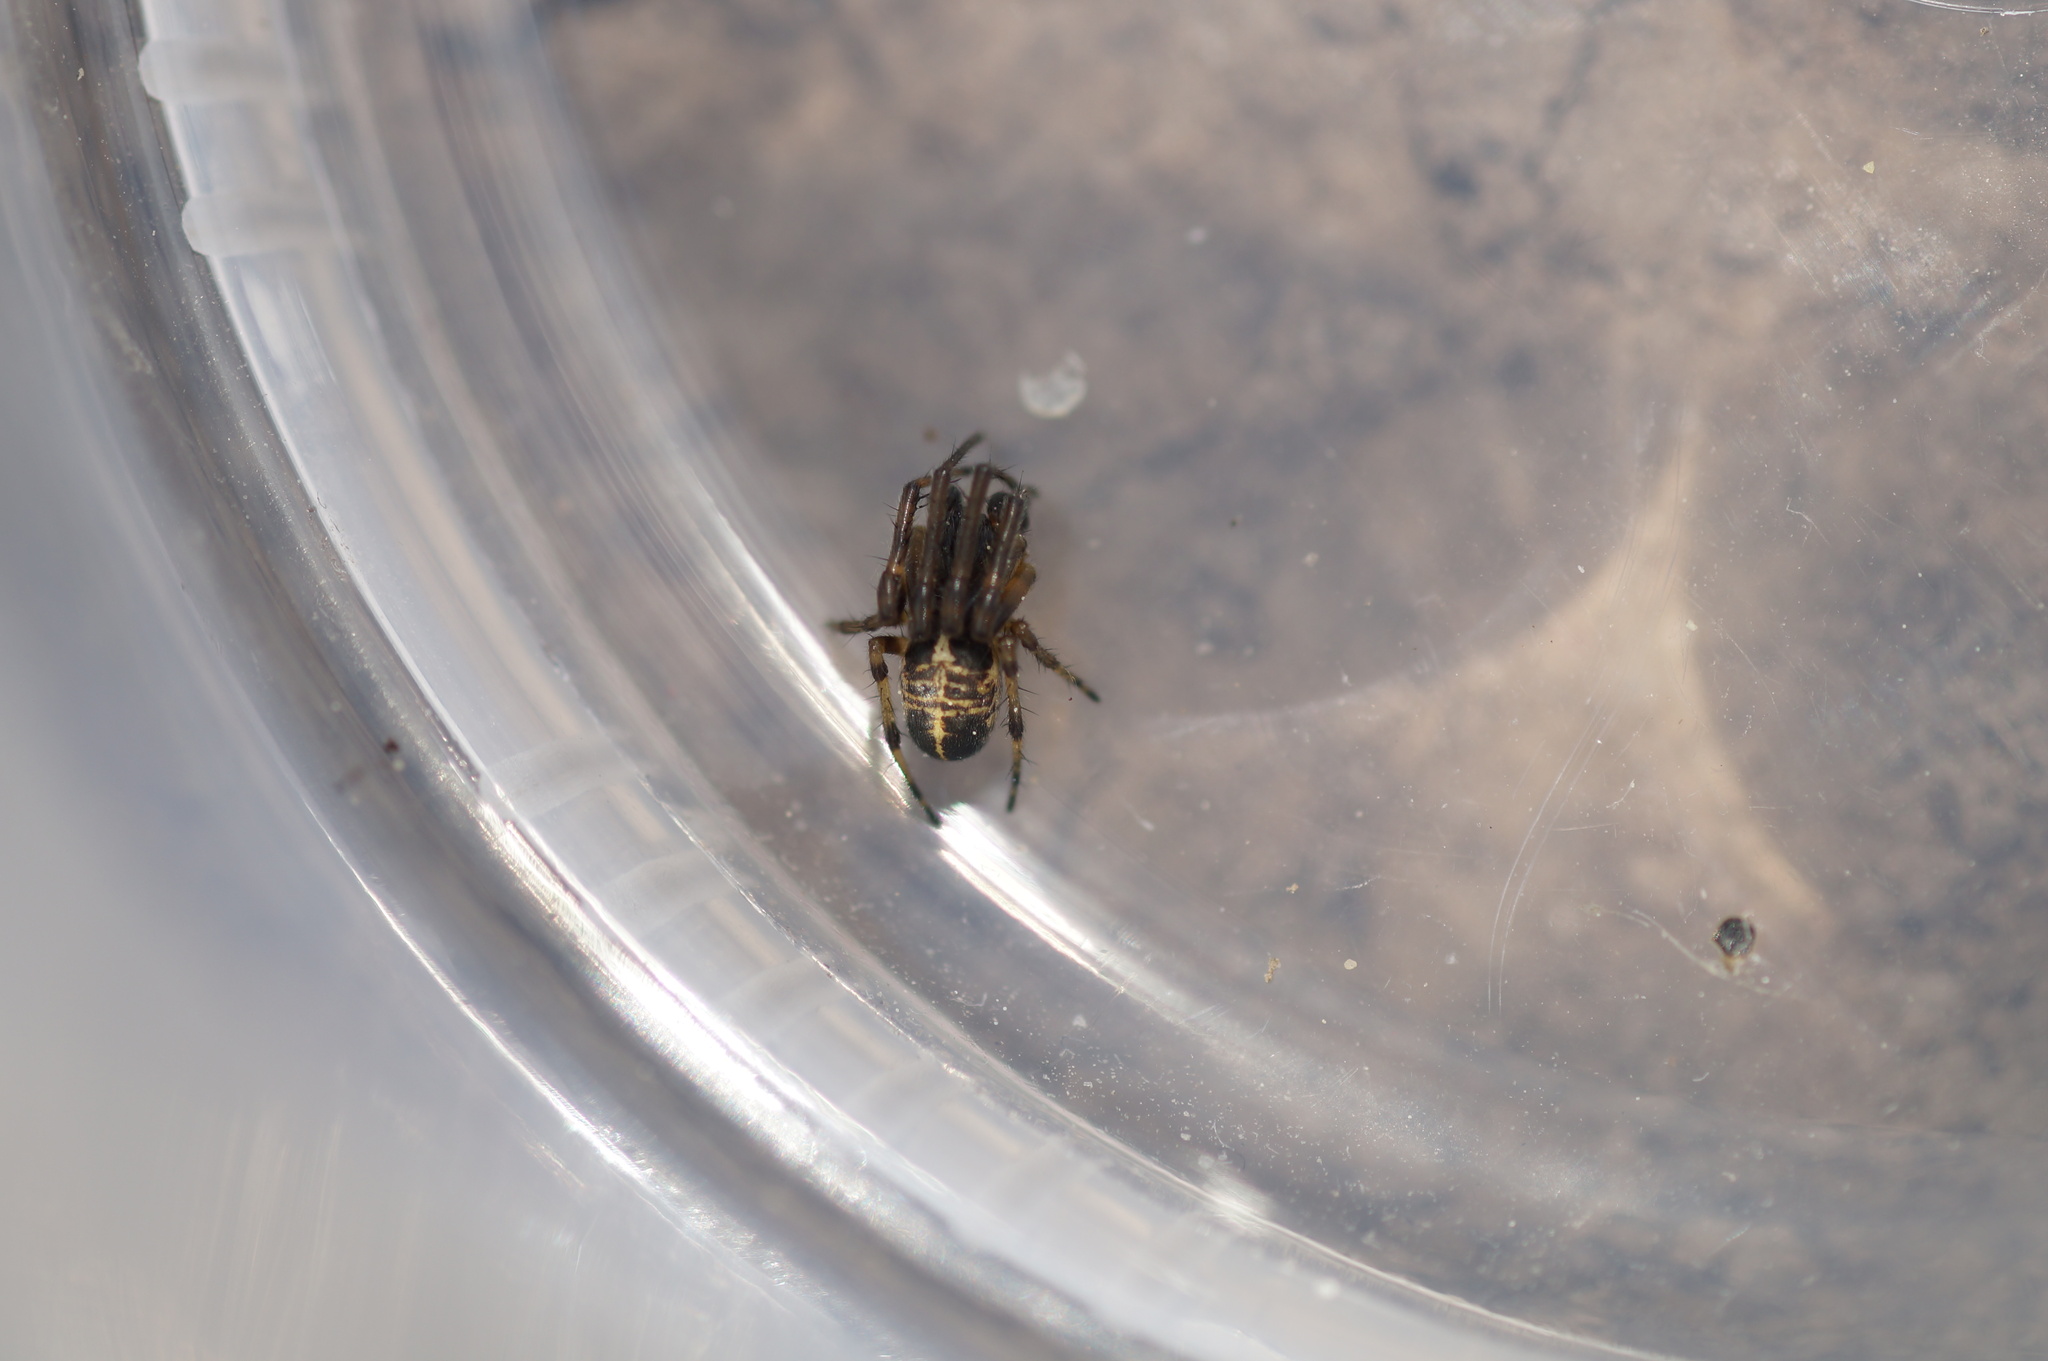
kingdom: Animalia
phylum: Arthropoda
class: Arachnida
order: Araneae
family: Araneidae
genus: Singa
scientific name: Singa hamata
